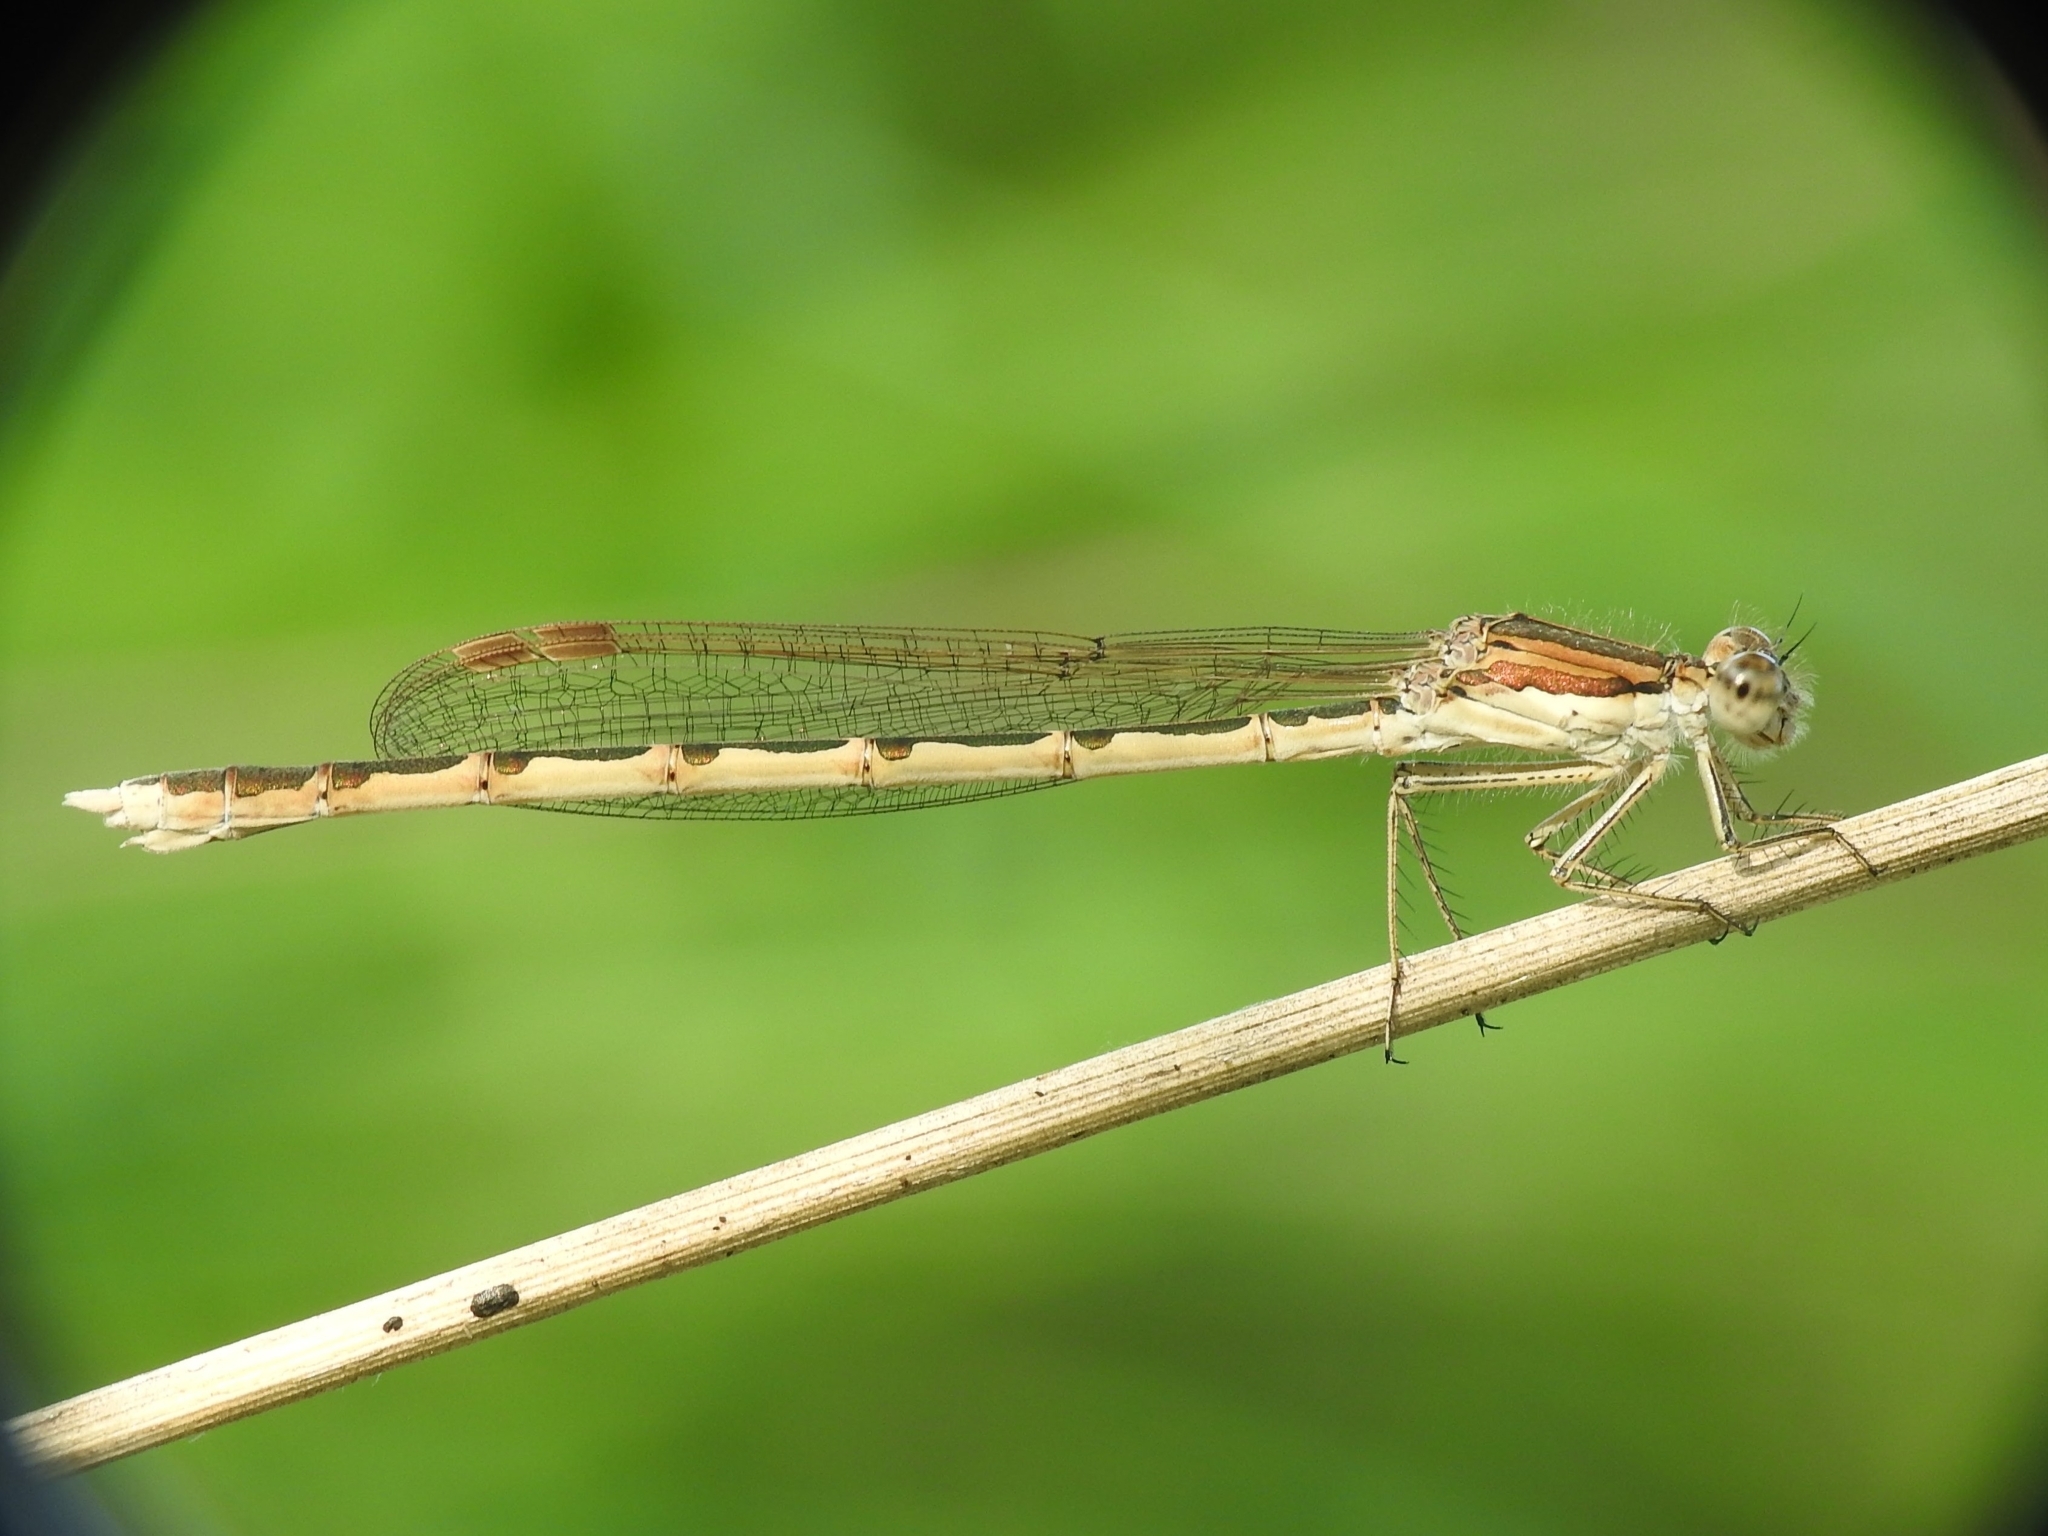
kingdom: Animalia
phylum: Arthropoda
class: Insecta
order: Odonata
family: Lestidae
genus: Sympecma
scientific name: Sympecma fusca
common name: Common winter damsel
